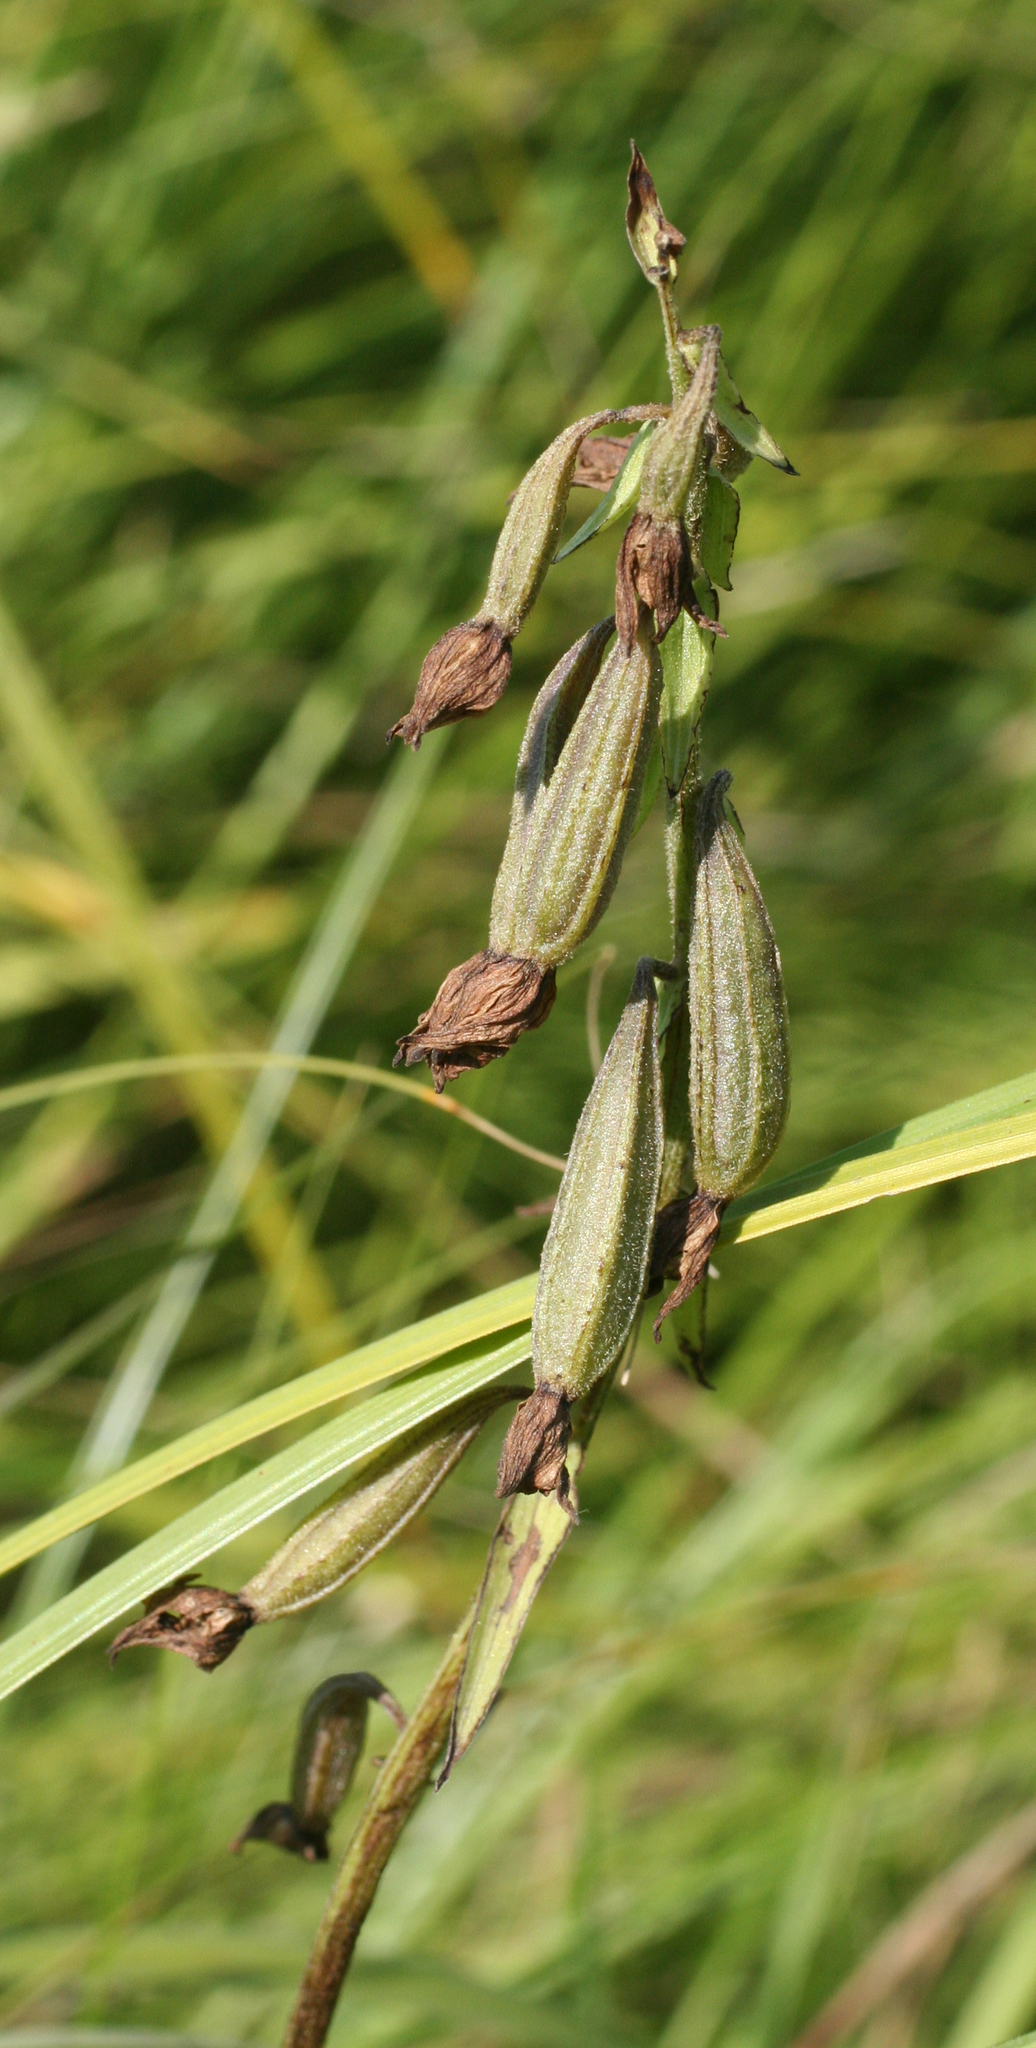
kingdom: Plantae
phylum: Tracheophyta
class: Liliopsida
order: Asparagales
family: Orchidaceae
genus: Epipactis
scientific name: Epipactis palustris
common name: Marsh helleborine
